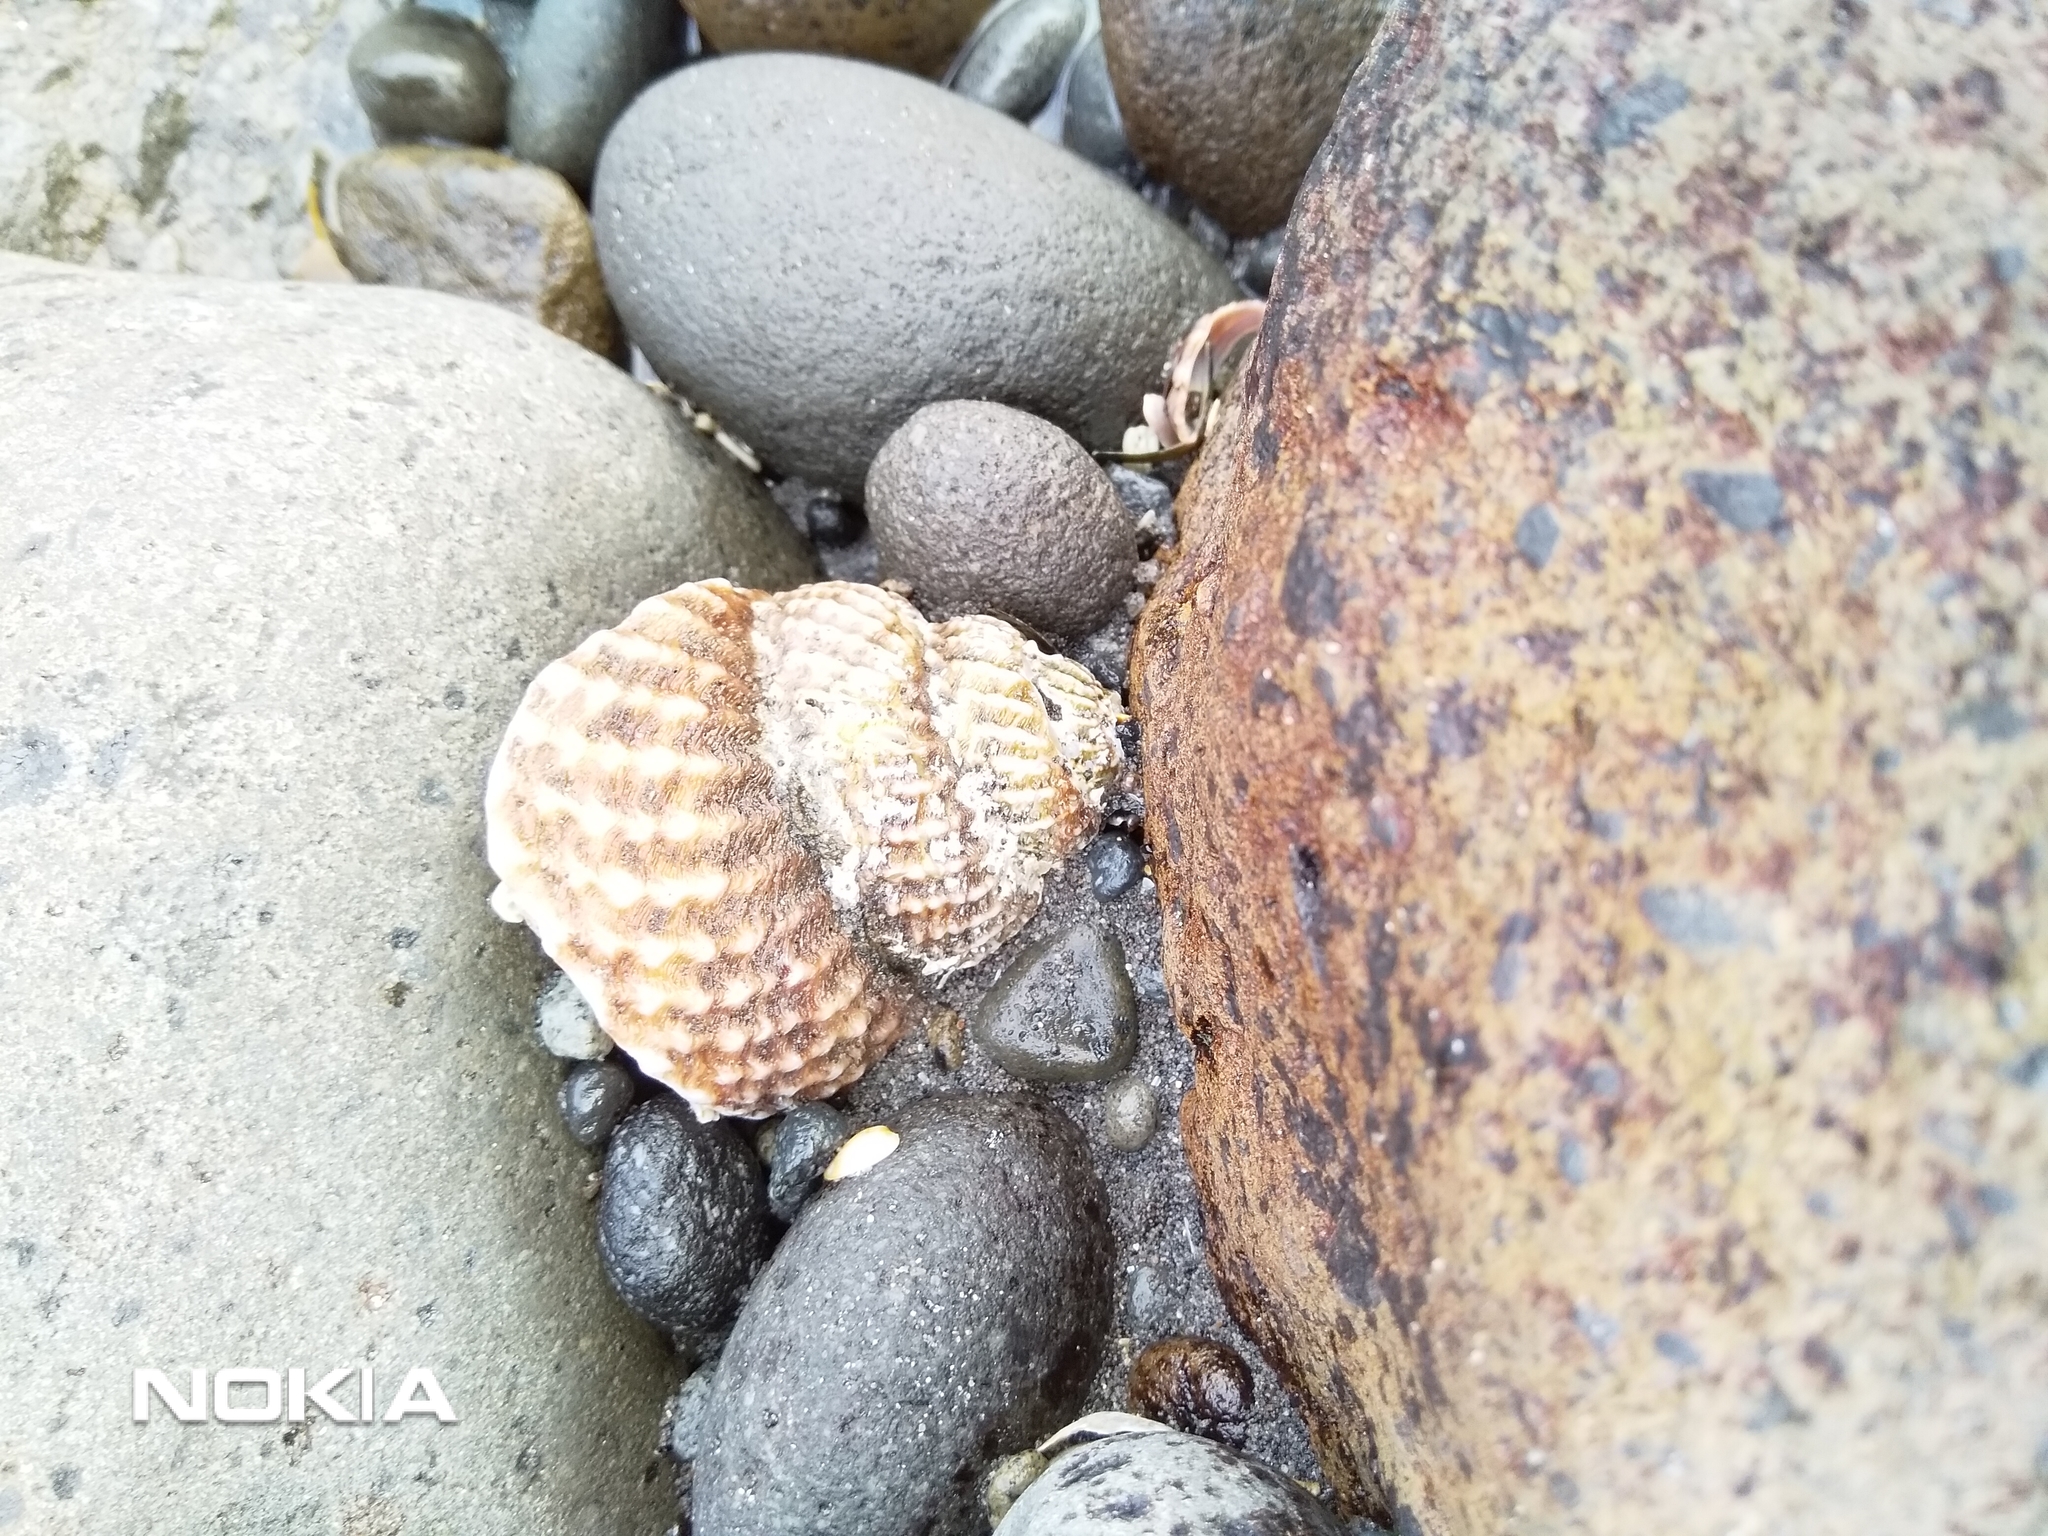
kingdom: Animalia
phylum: Mollusca
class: Gastropoda
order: Trochida
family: Turbinidae
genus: Cookia
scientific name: Cookia sulcata
